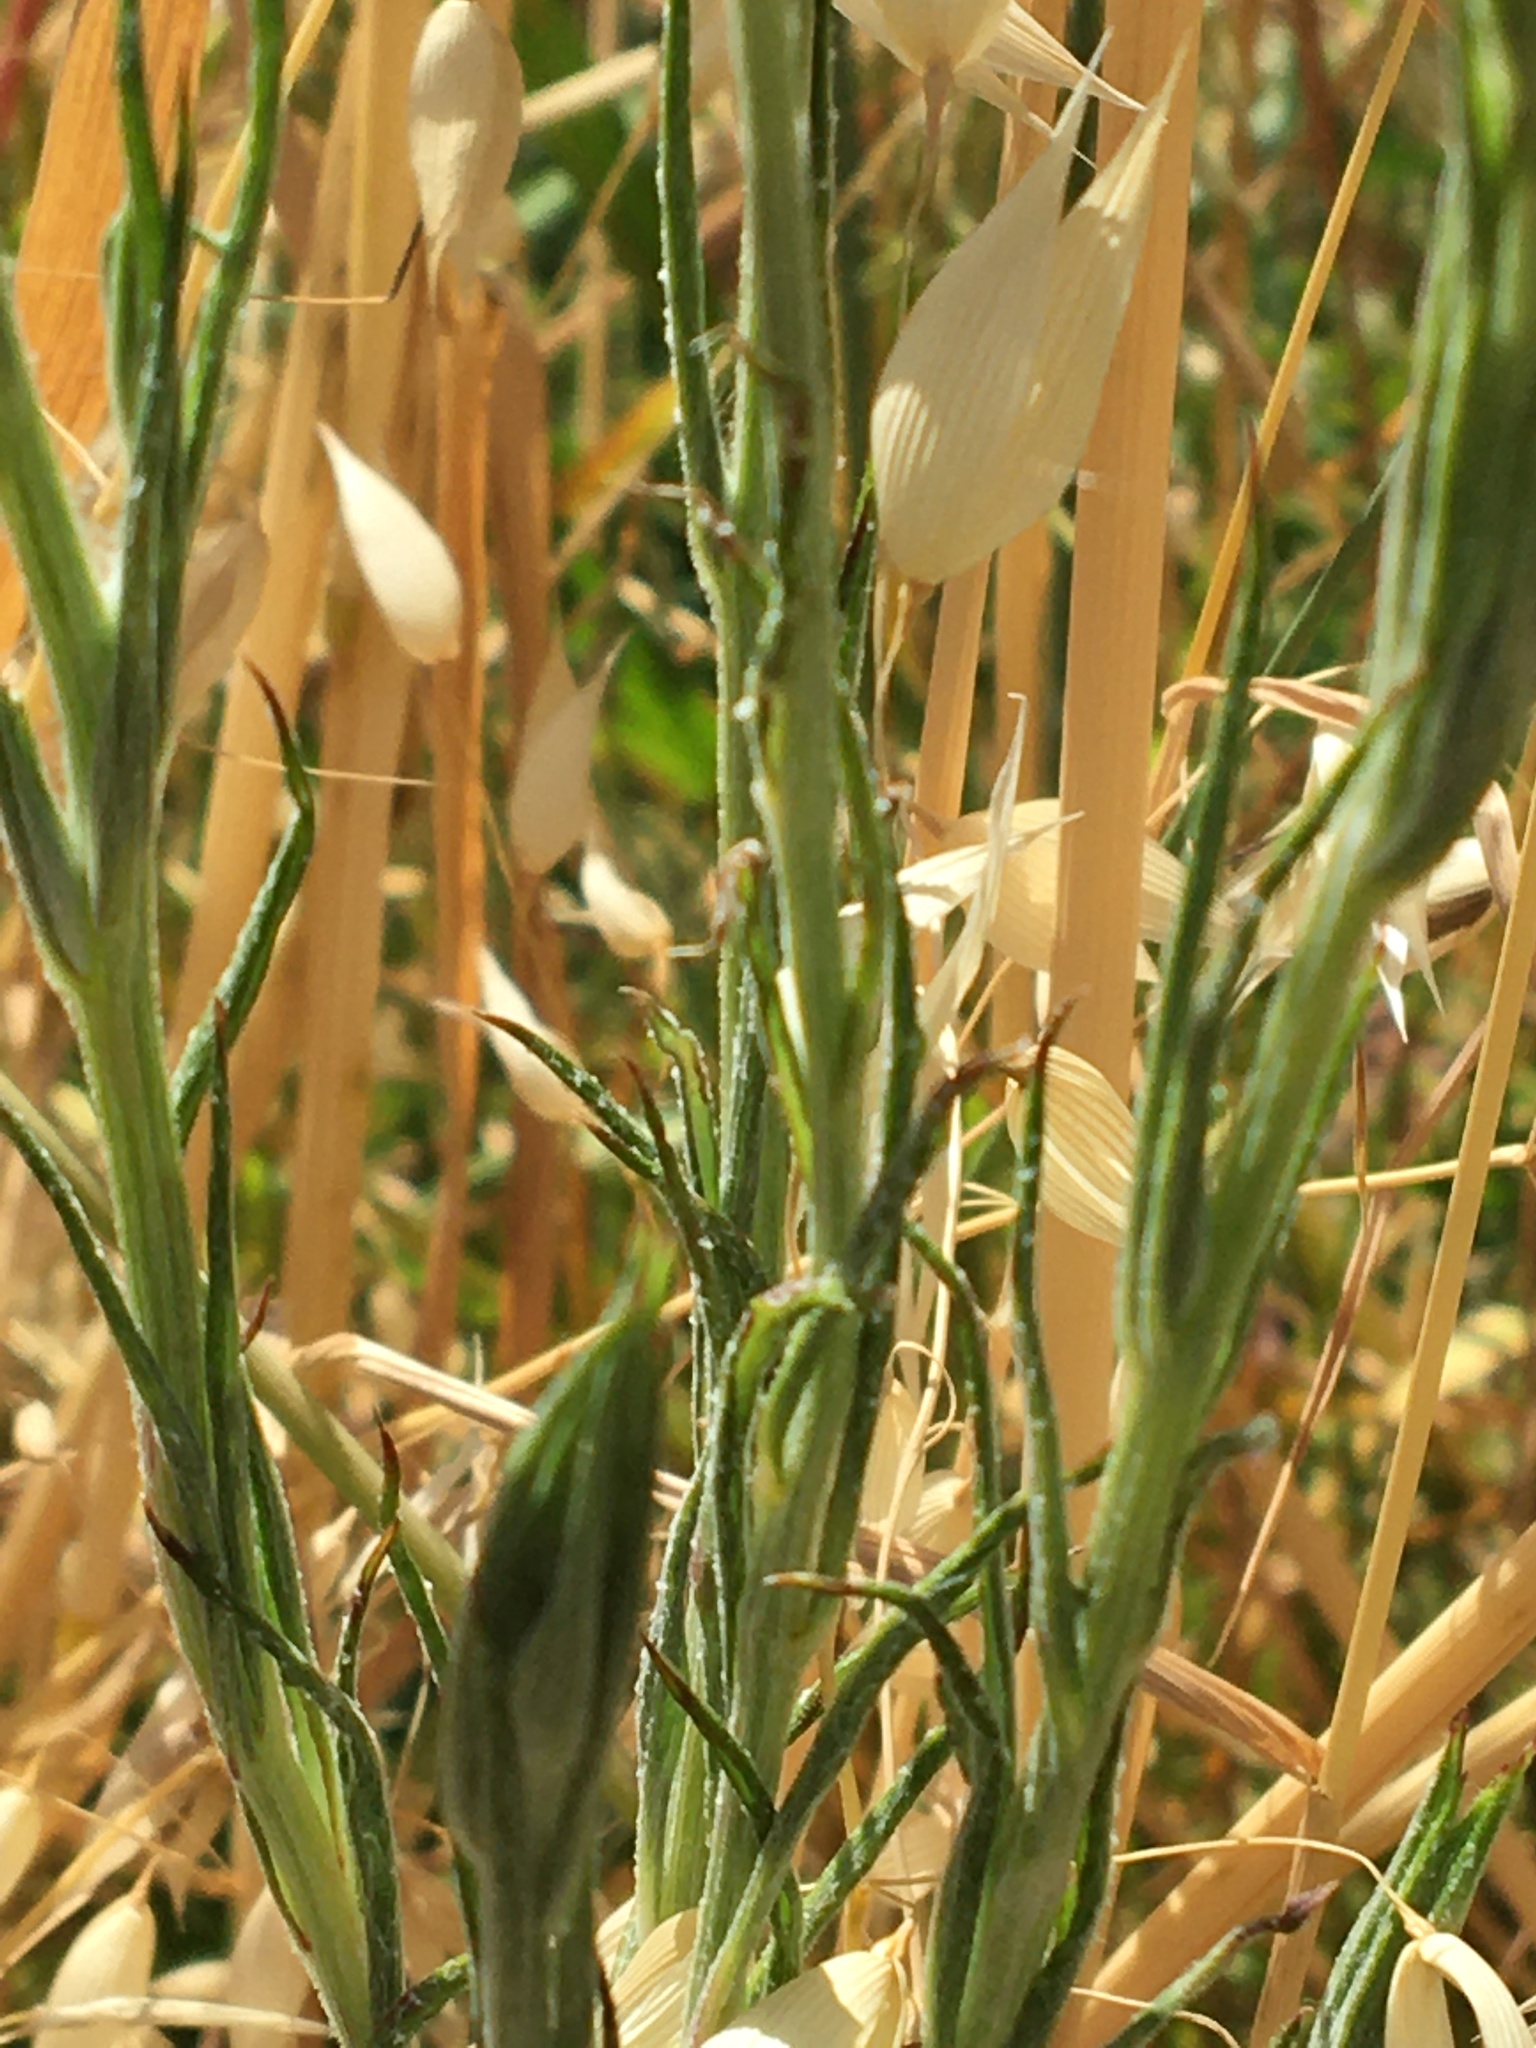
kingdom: Plantae
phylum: Tracheophyta
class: Magnoliopsida
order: Asterales
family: Asteraceae
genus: Centaurea
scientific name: Centaurea cyanus
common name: Cornflower
